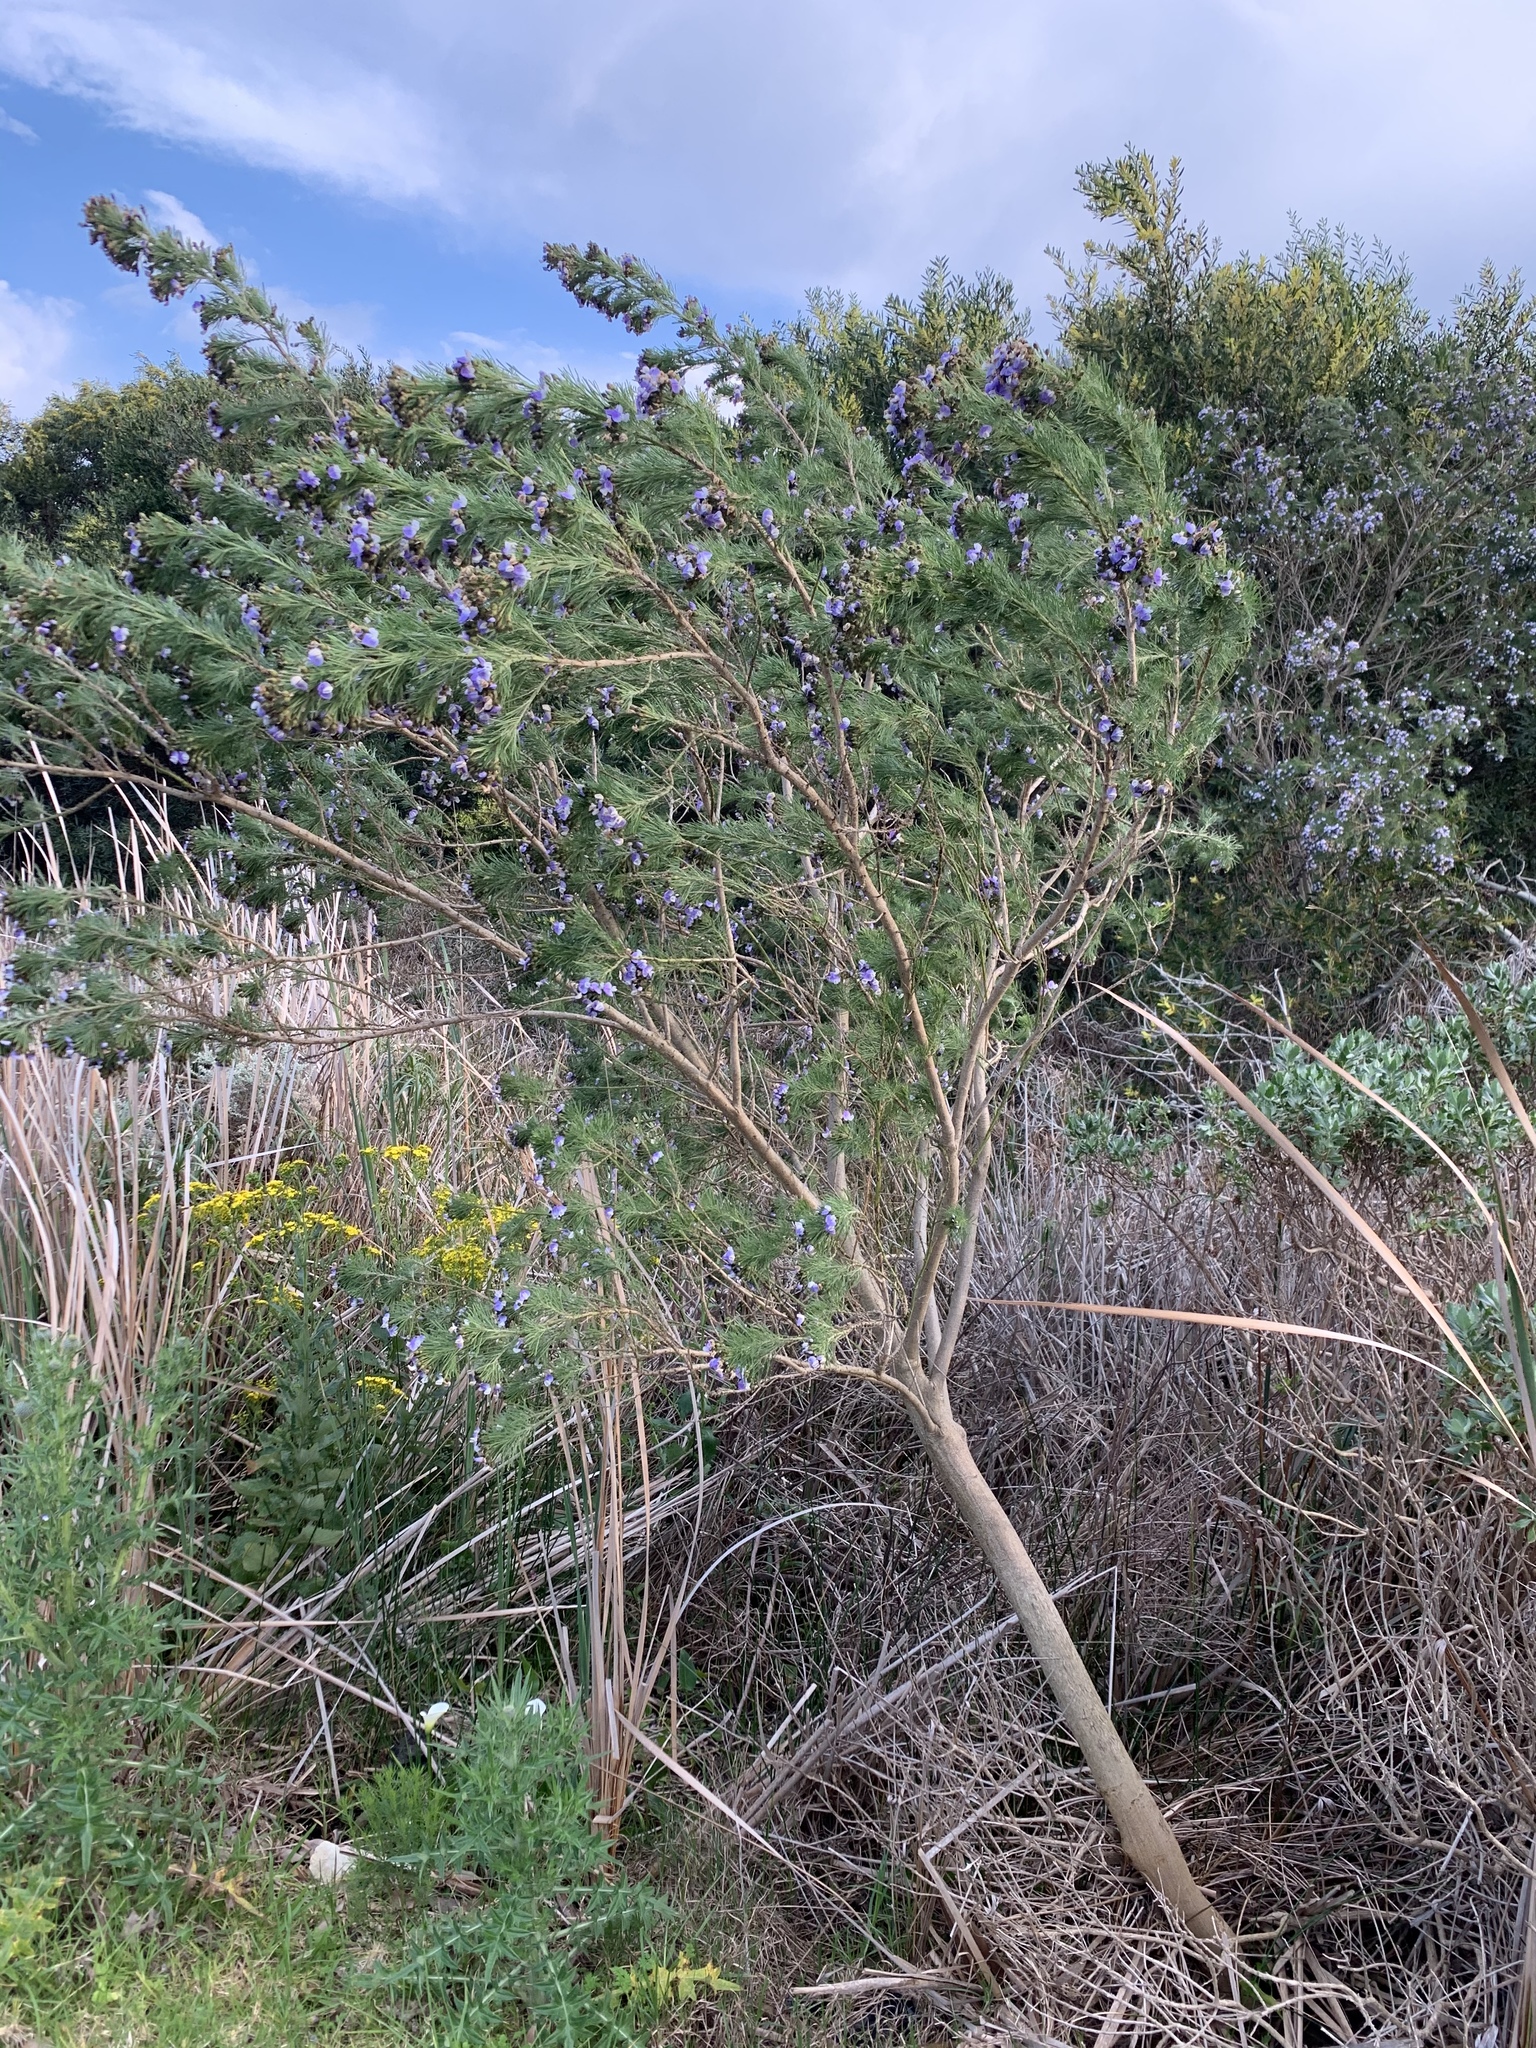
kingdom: Plantae
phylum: Tracheophyta
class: Magnoliopsida
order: Fabales
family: Fabaceae
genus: Psoralea
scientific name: Psoralea arborea
